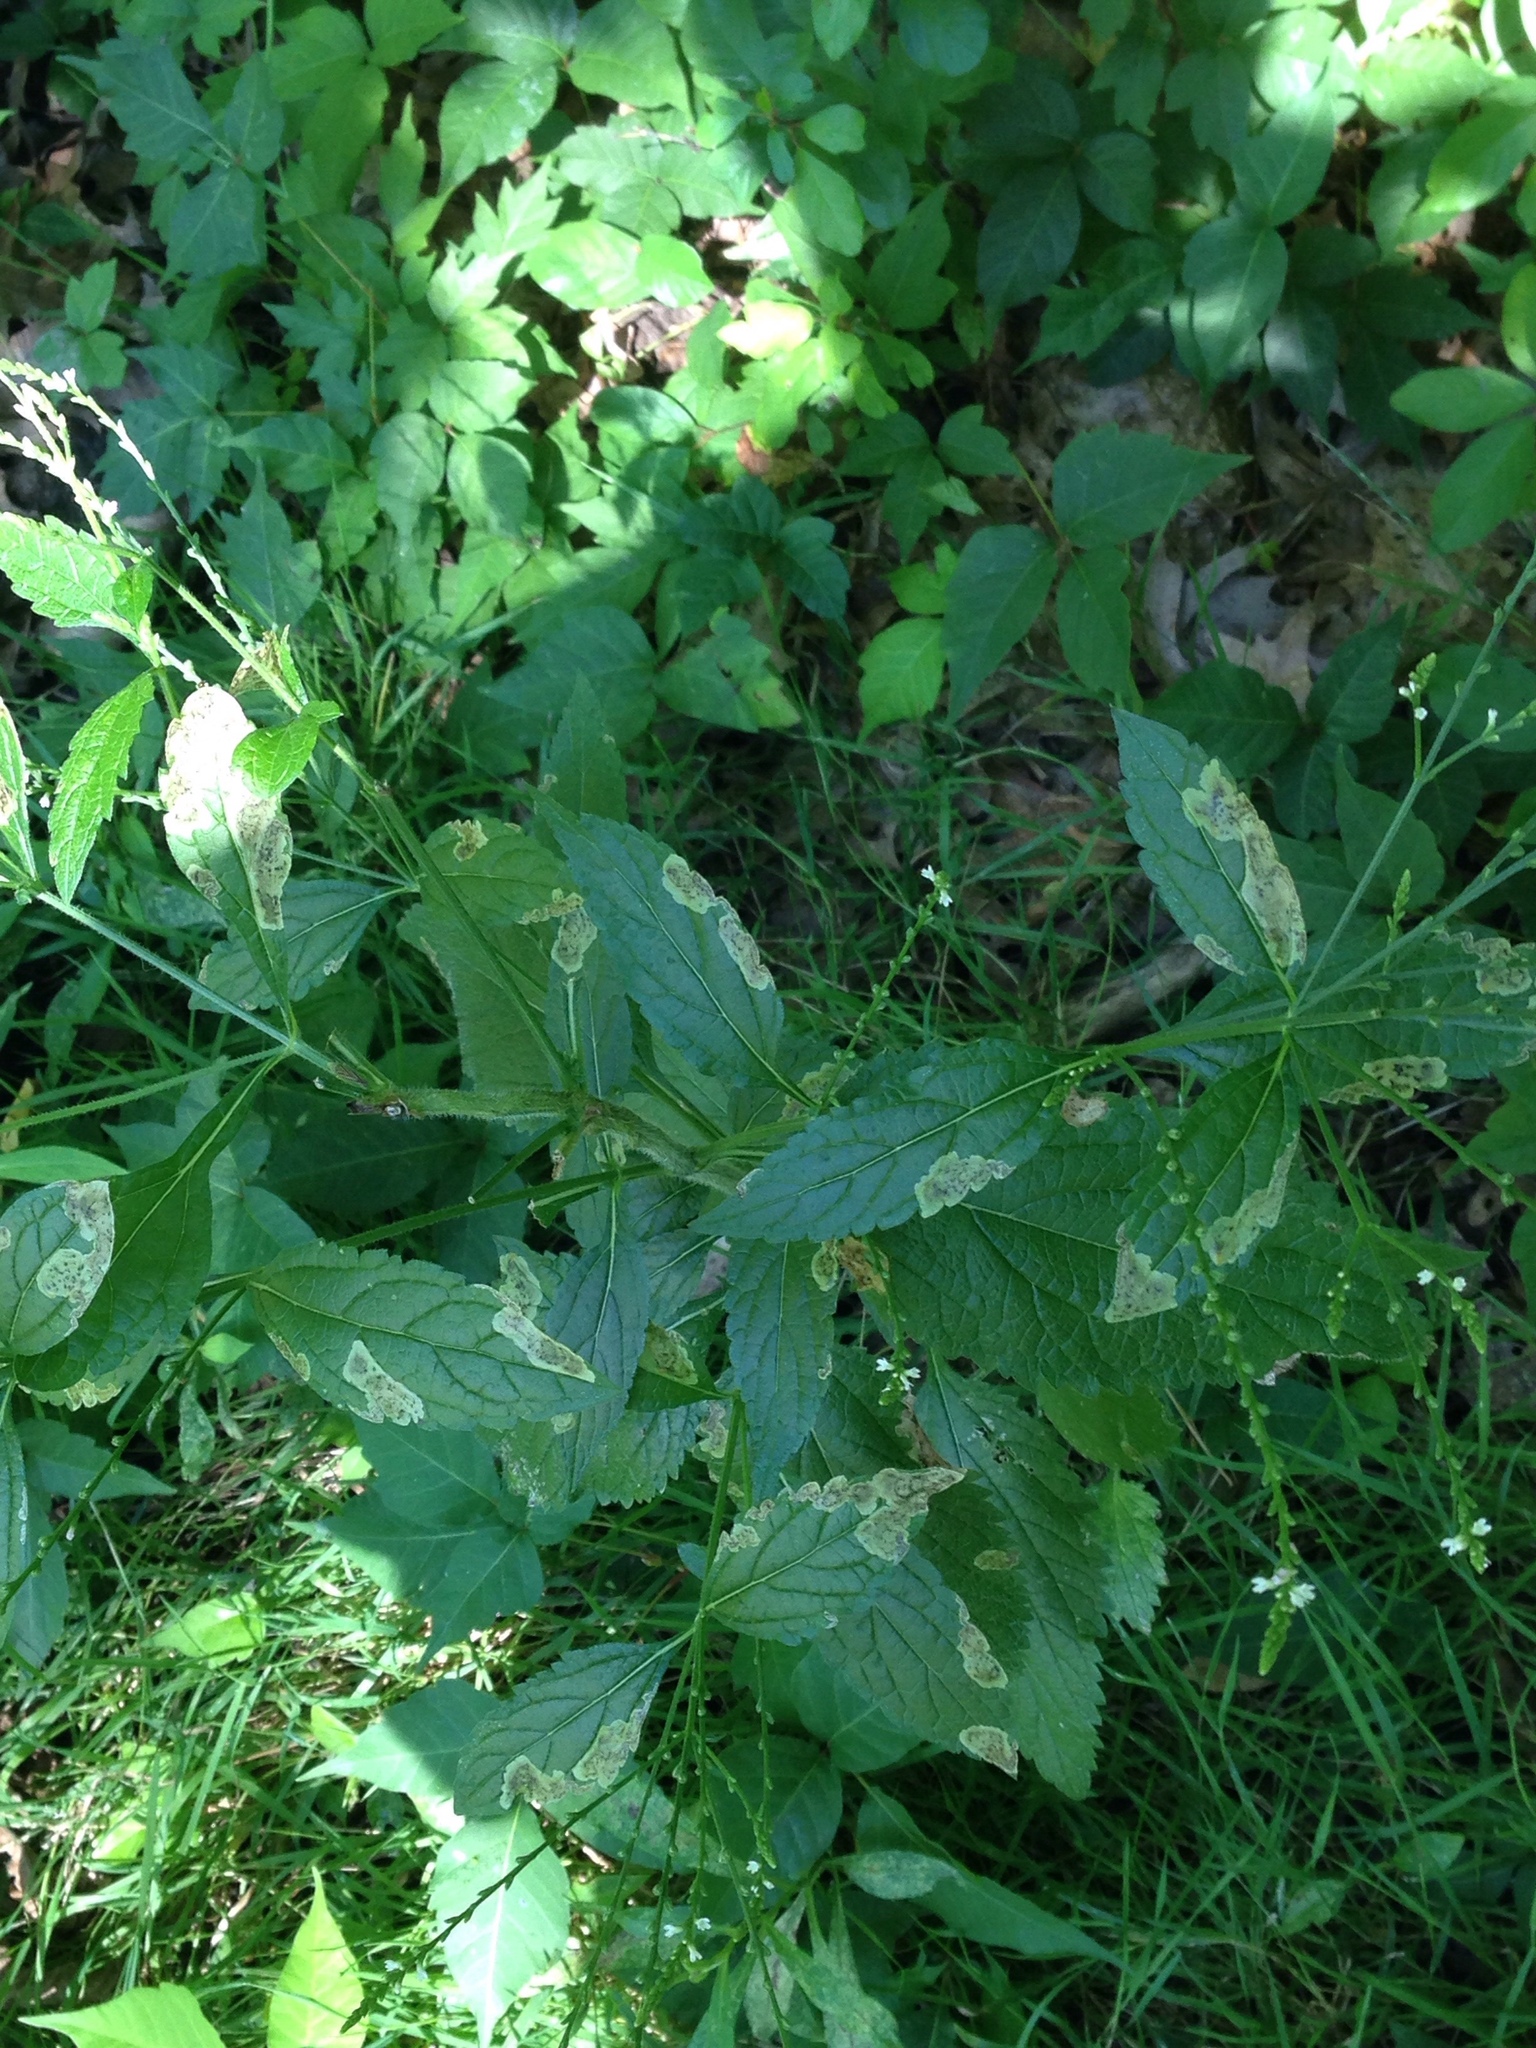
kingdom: Plantae
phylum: Tracheophyta
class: Magnoliopsida
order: Lamiales
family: Verbenaceae
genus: Verbena
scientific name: Verbena urticifolia
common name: Nettle-leaved vervain
